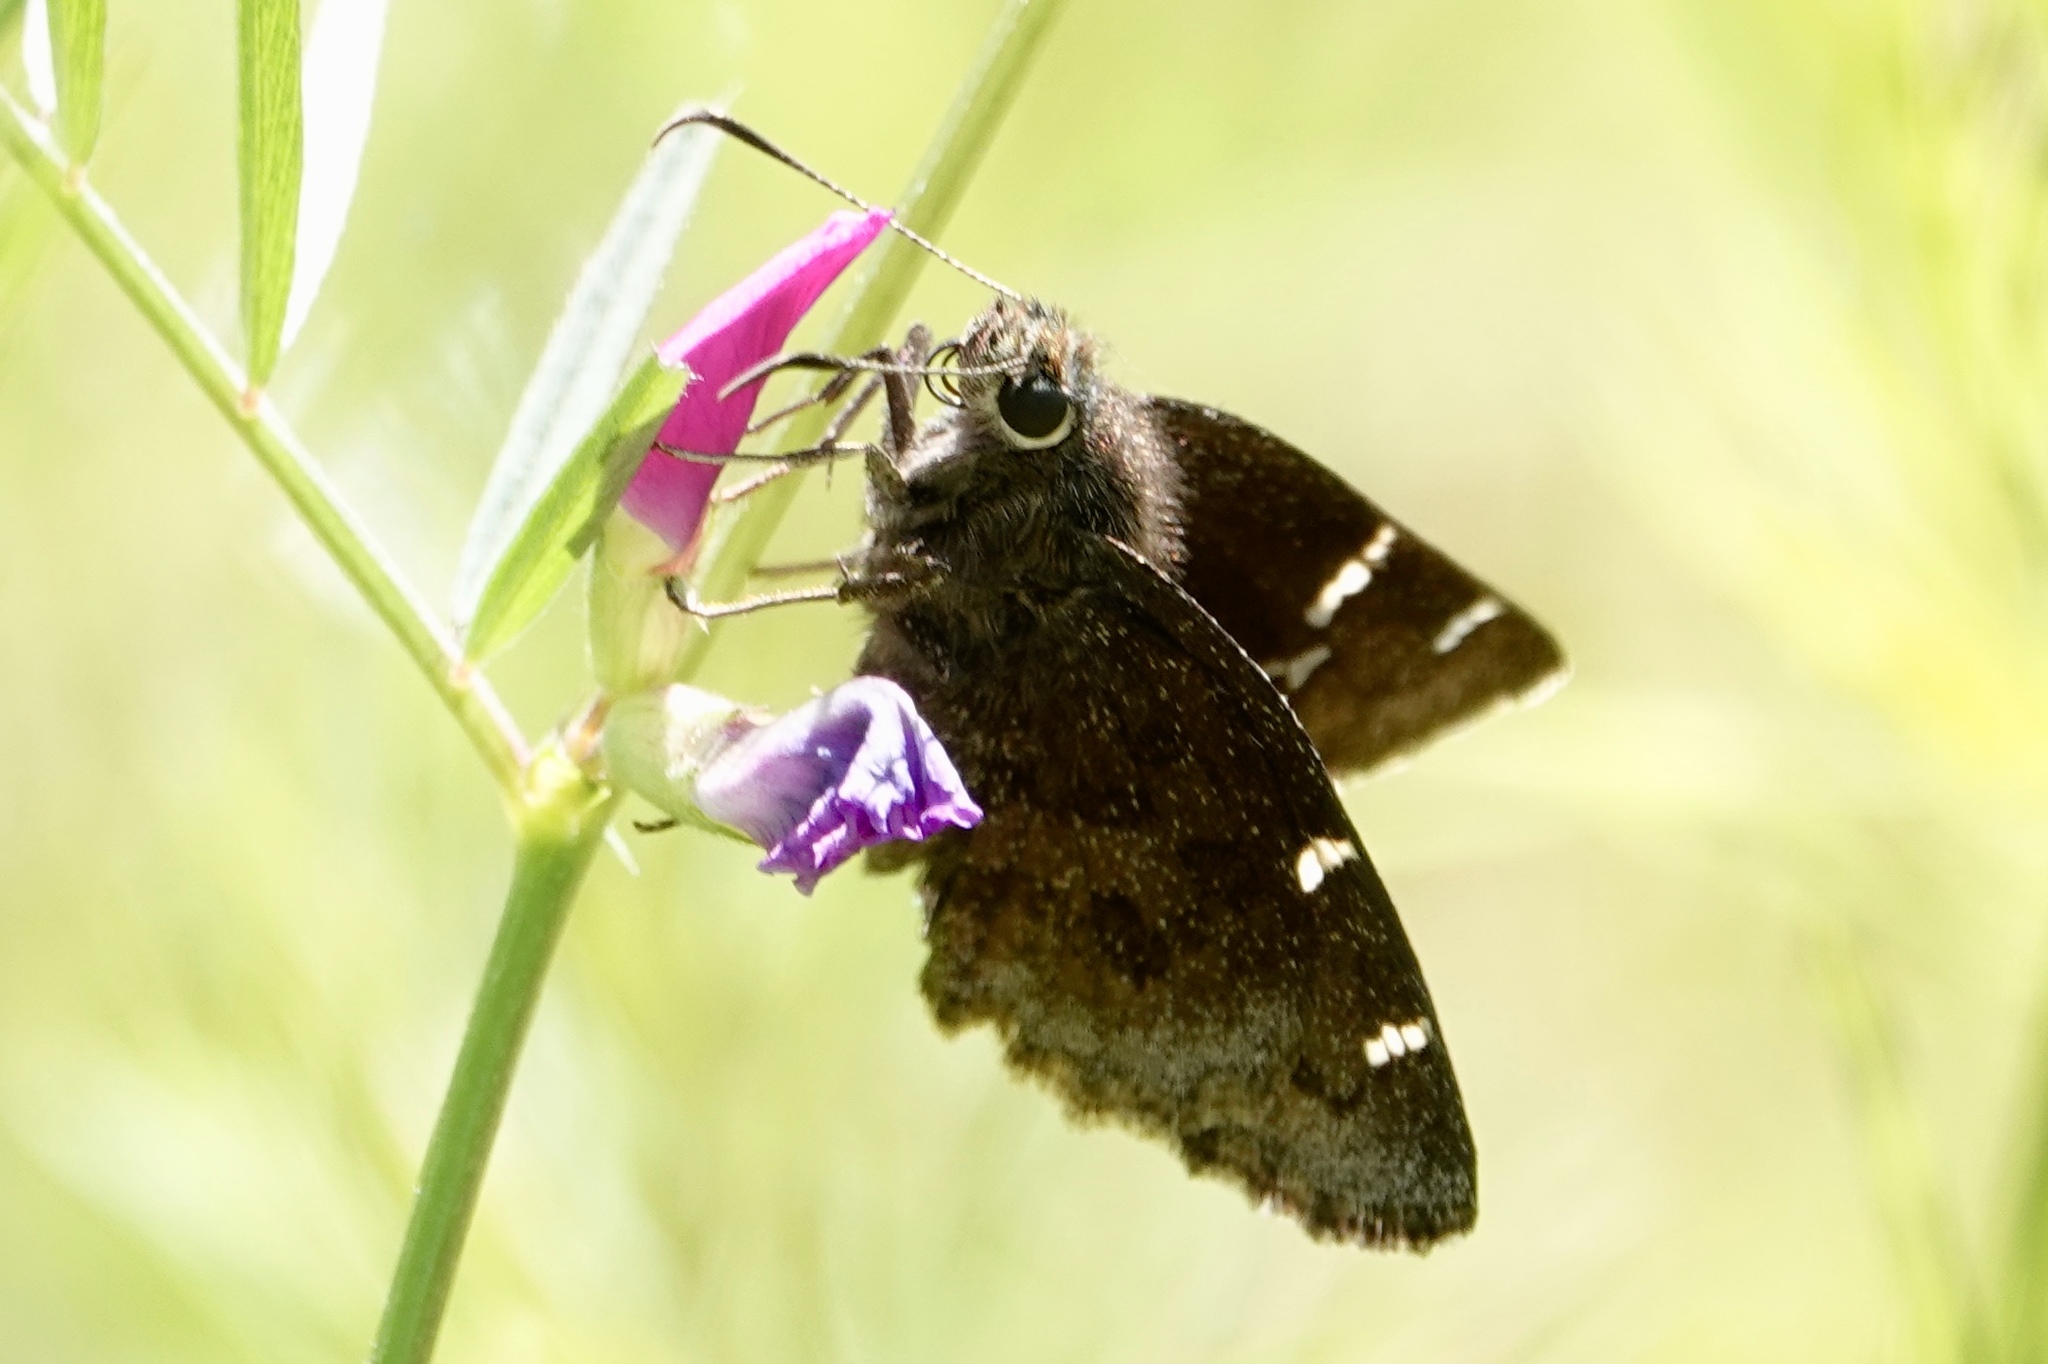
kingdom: Animalia
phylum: Arthropoda
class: Insecta
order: Lepidoptera
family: Hesperiidae
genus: Thorybes
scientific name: Thorybes daunus
